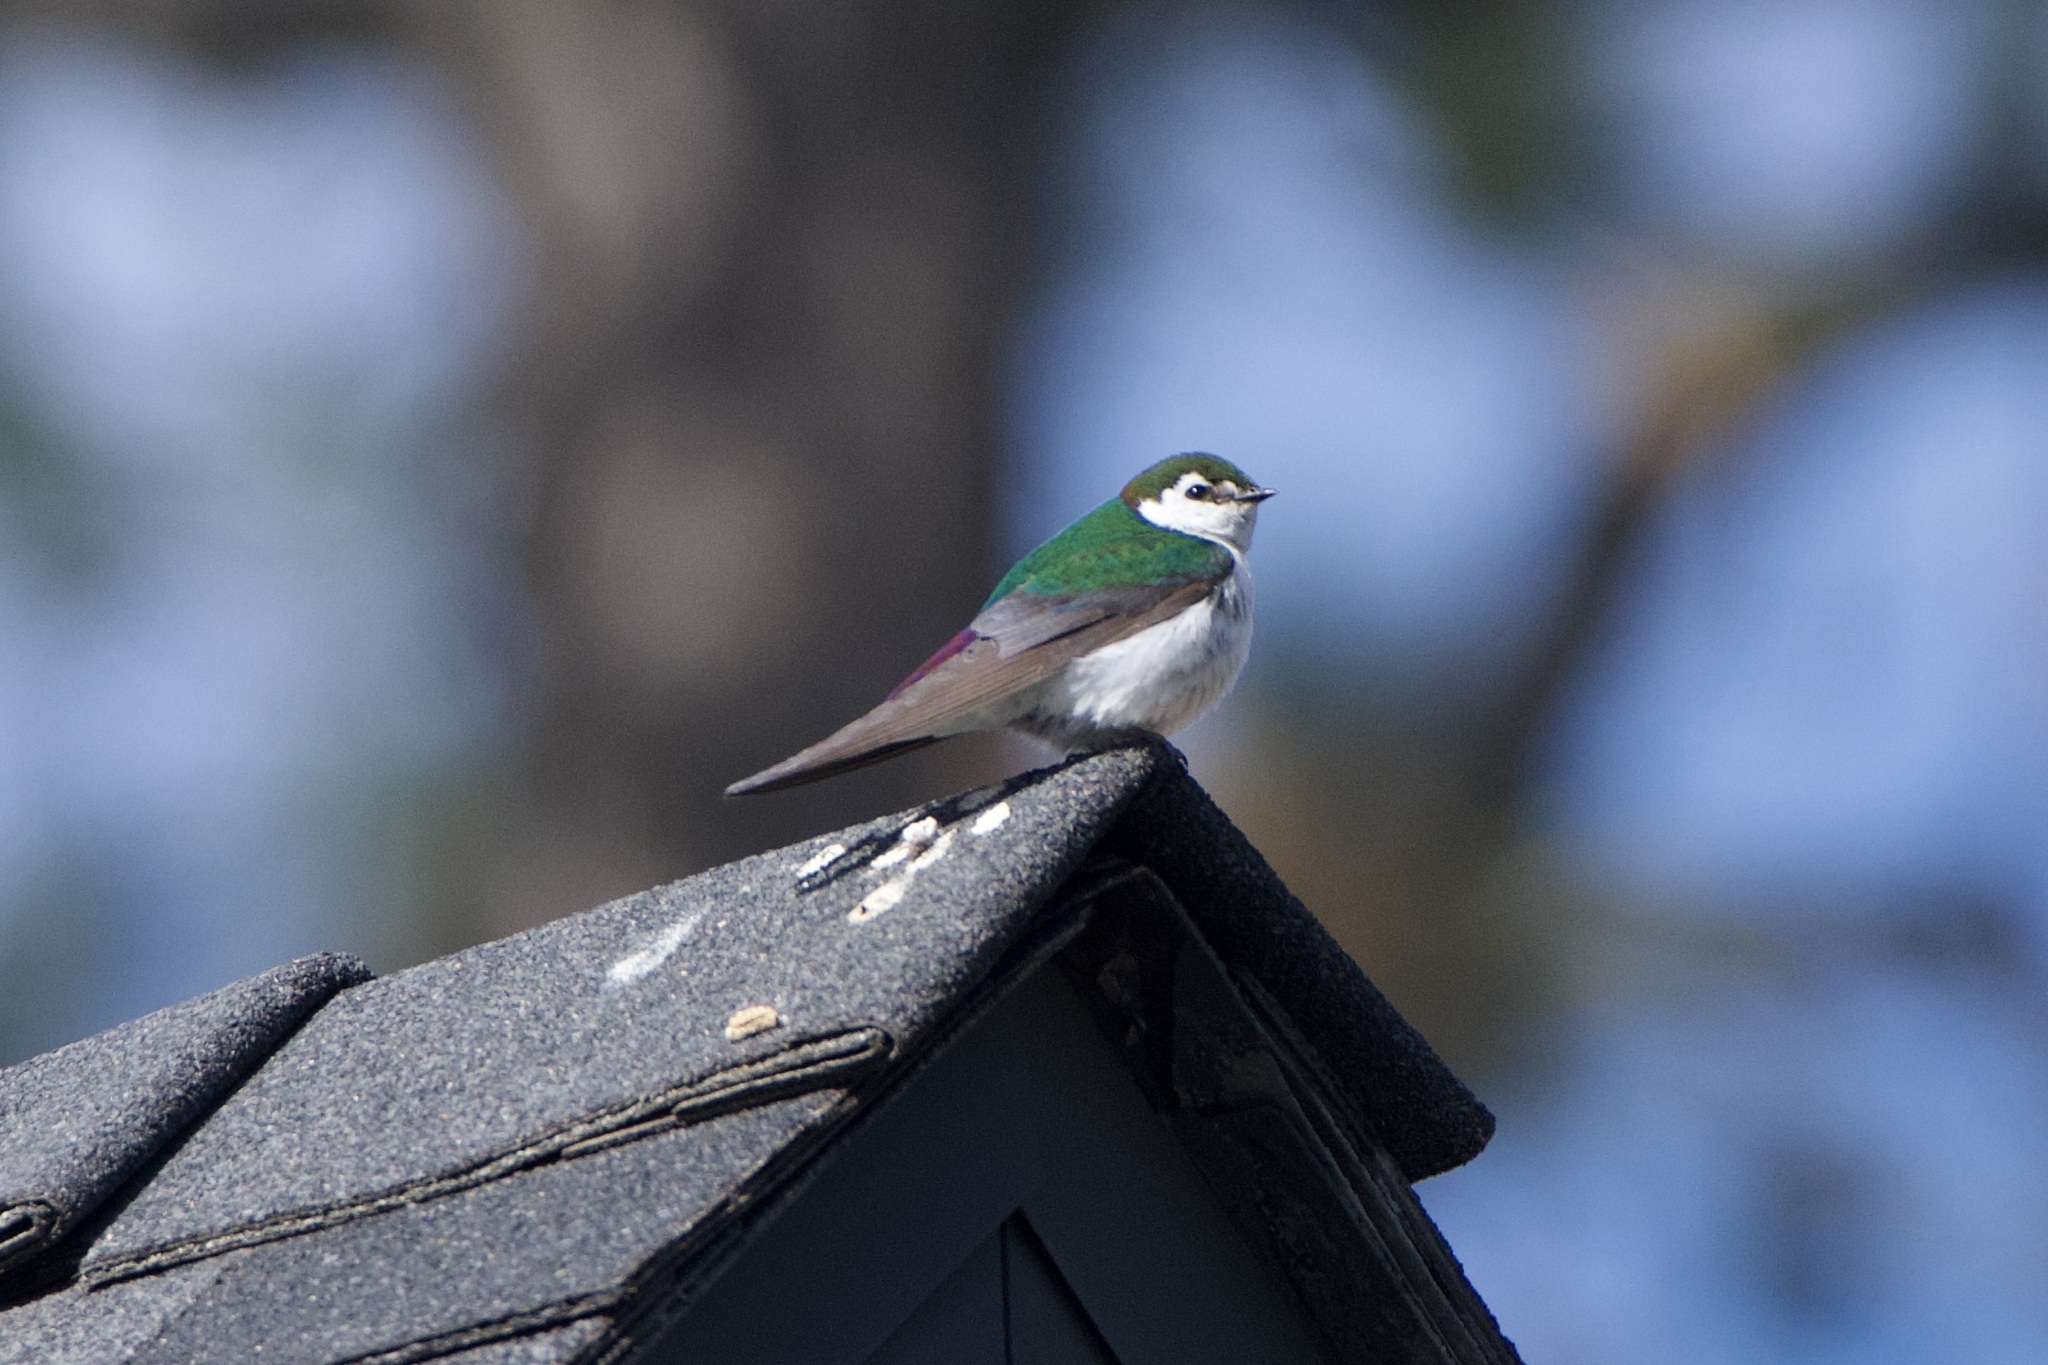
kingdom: Animalia
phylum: Chordata
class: Aves
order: Passeriformes
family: Hirundinidae
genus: Tachycineta
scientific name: Tachycineta thalassina
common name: Violet-green swallow
